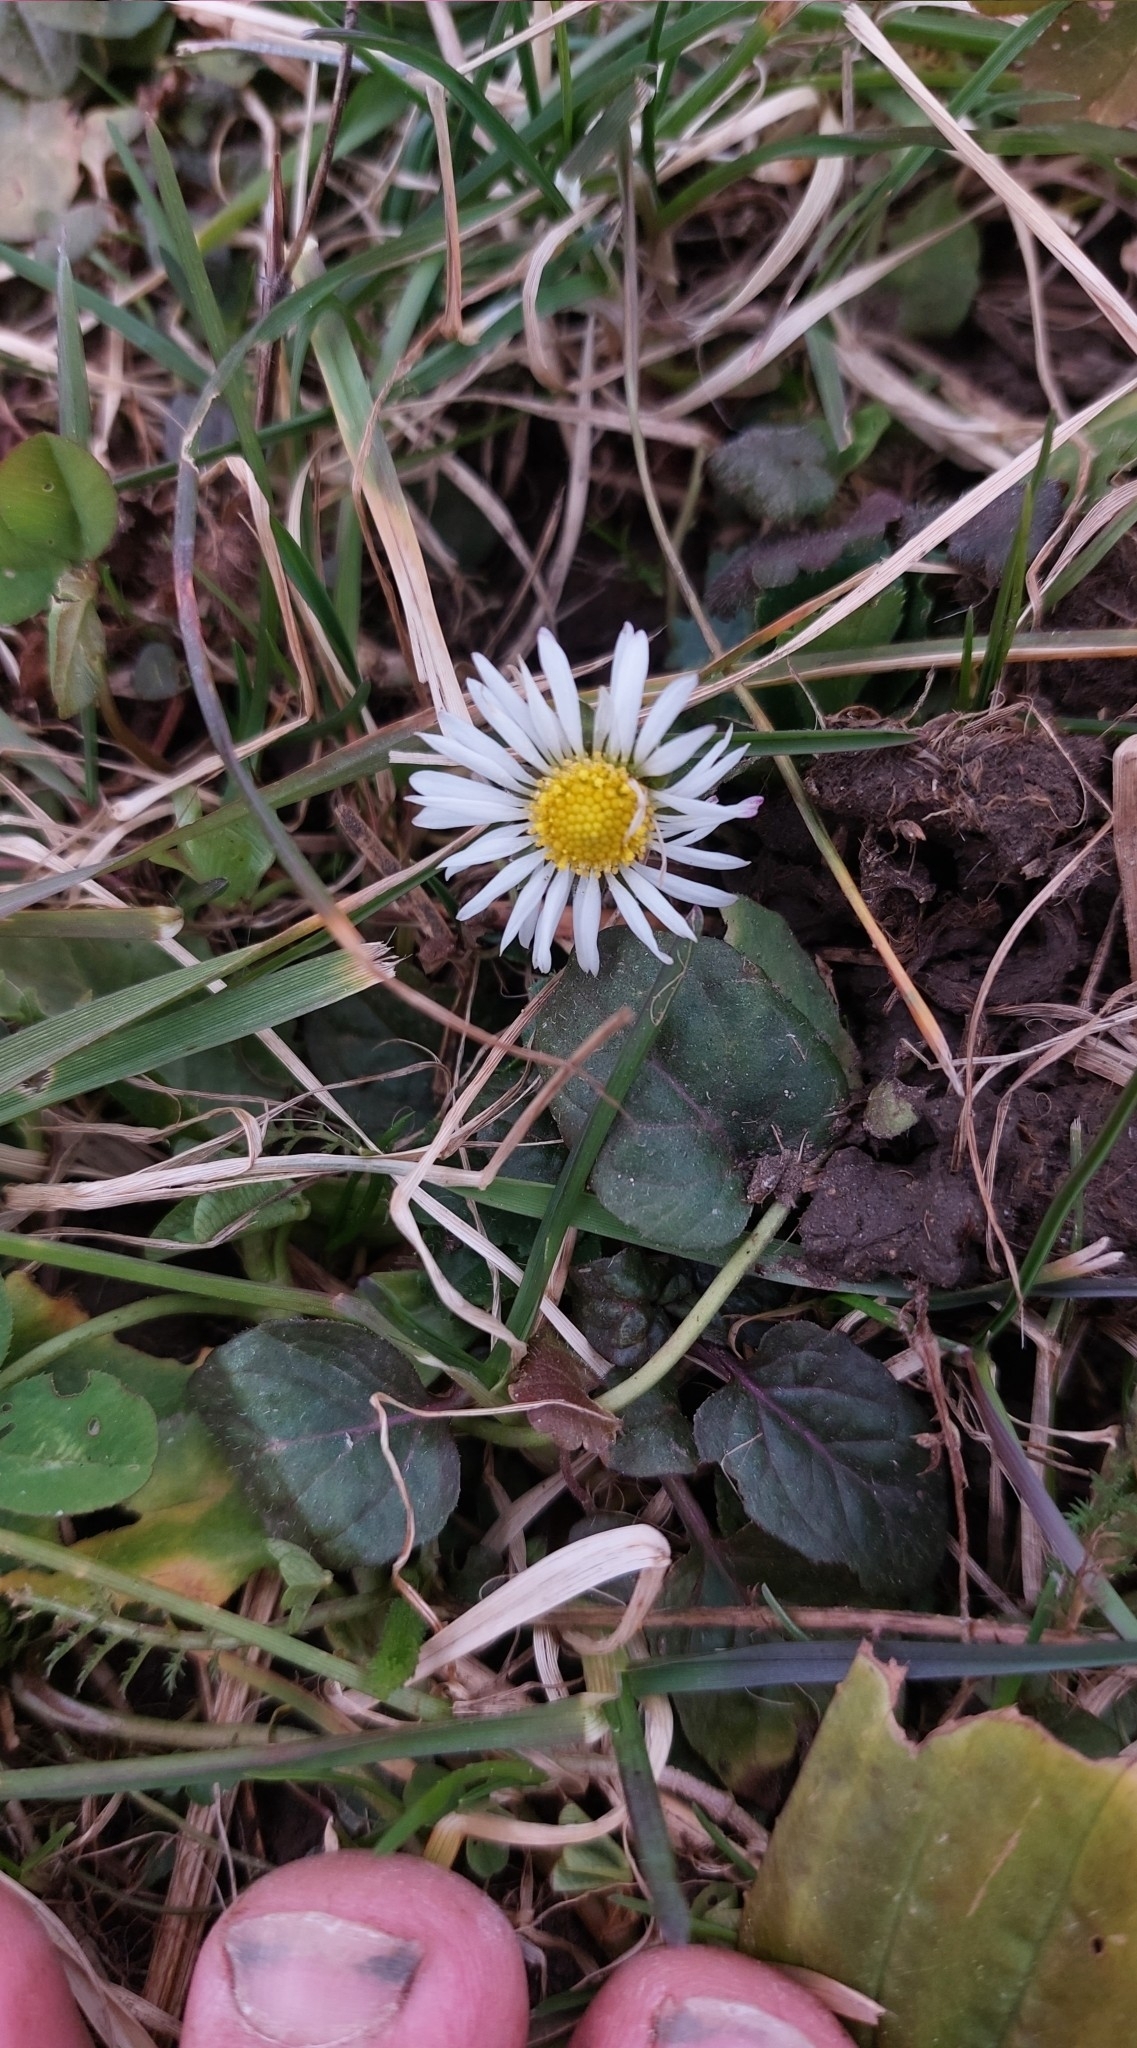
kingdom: Plantae
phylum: Tracheophyta
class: Magnoliopsida
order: Asterales
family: Asteraceae
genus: Bellis
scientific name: Bellis perennis
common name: Lawndaisy
